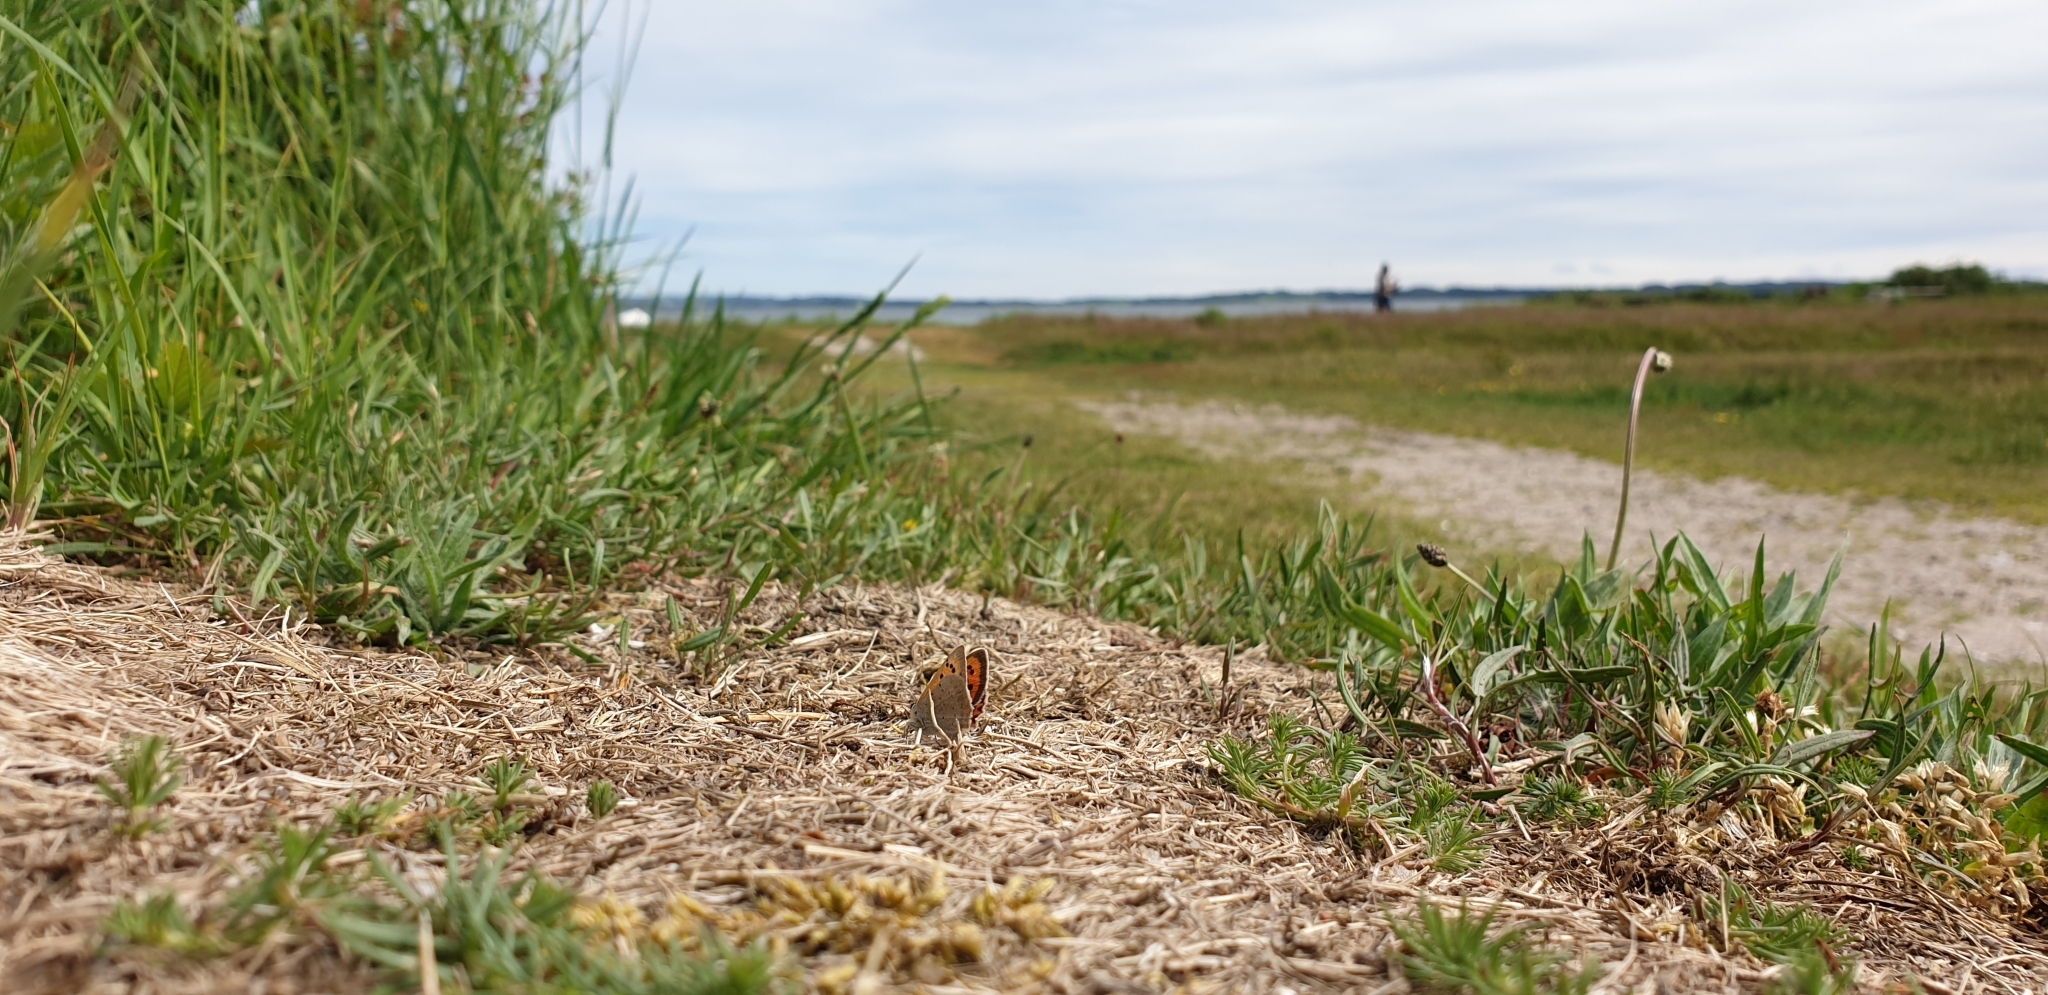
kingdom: Animalia
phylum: Arthropoda
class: Insecta
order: Lepidoptera
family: Lycaenidae
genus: Lycaena
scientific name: Lycaena phlaeas
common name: Small copper
